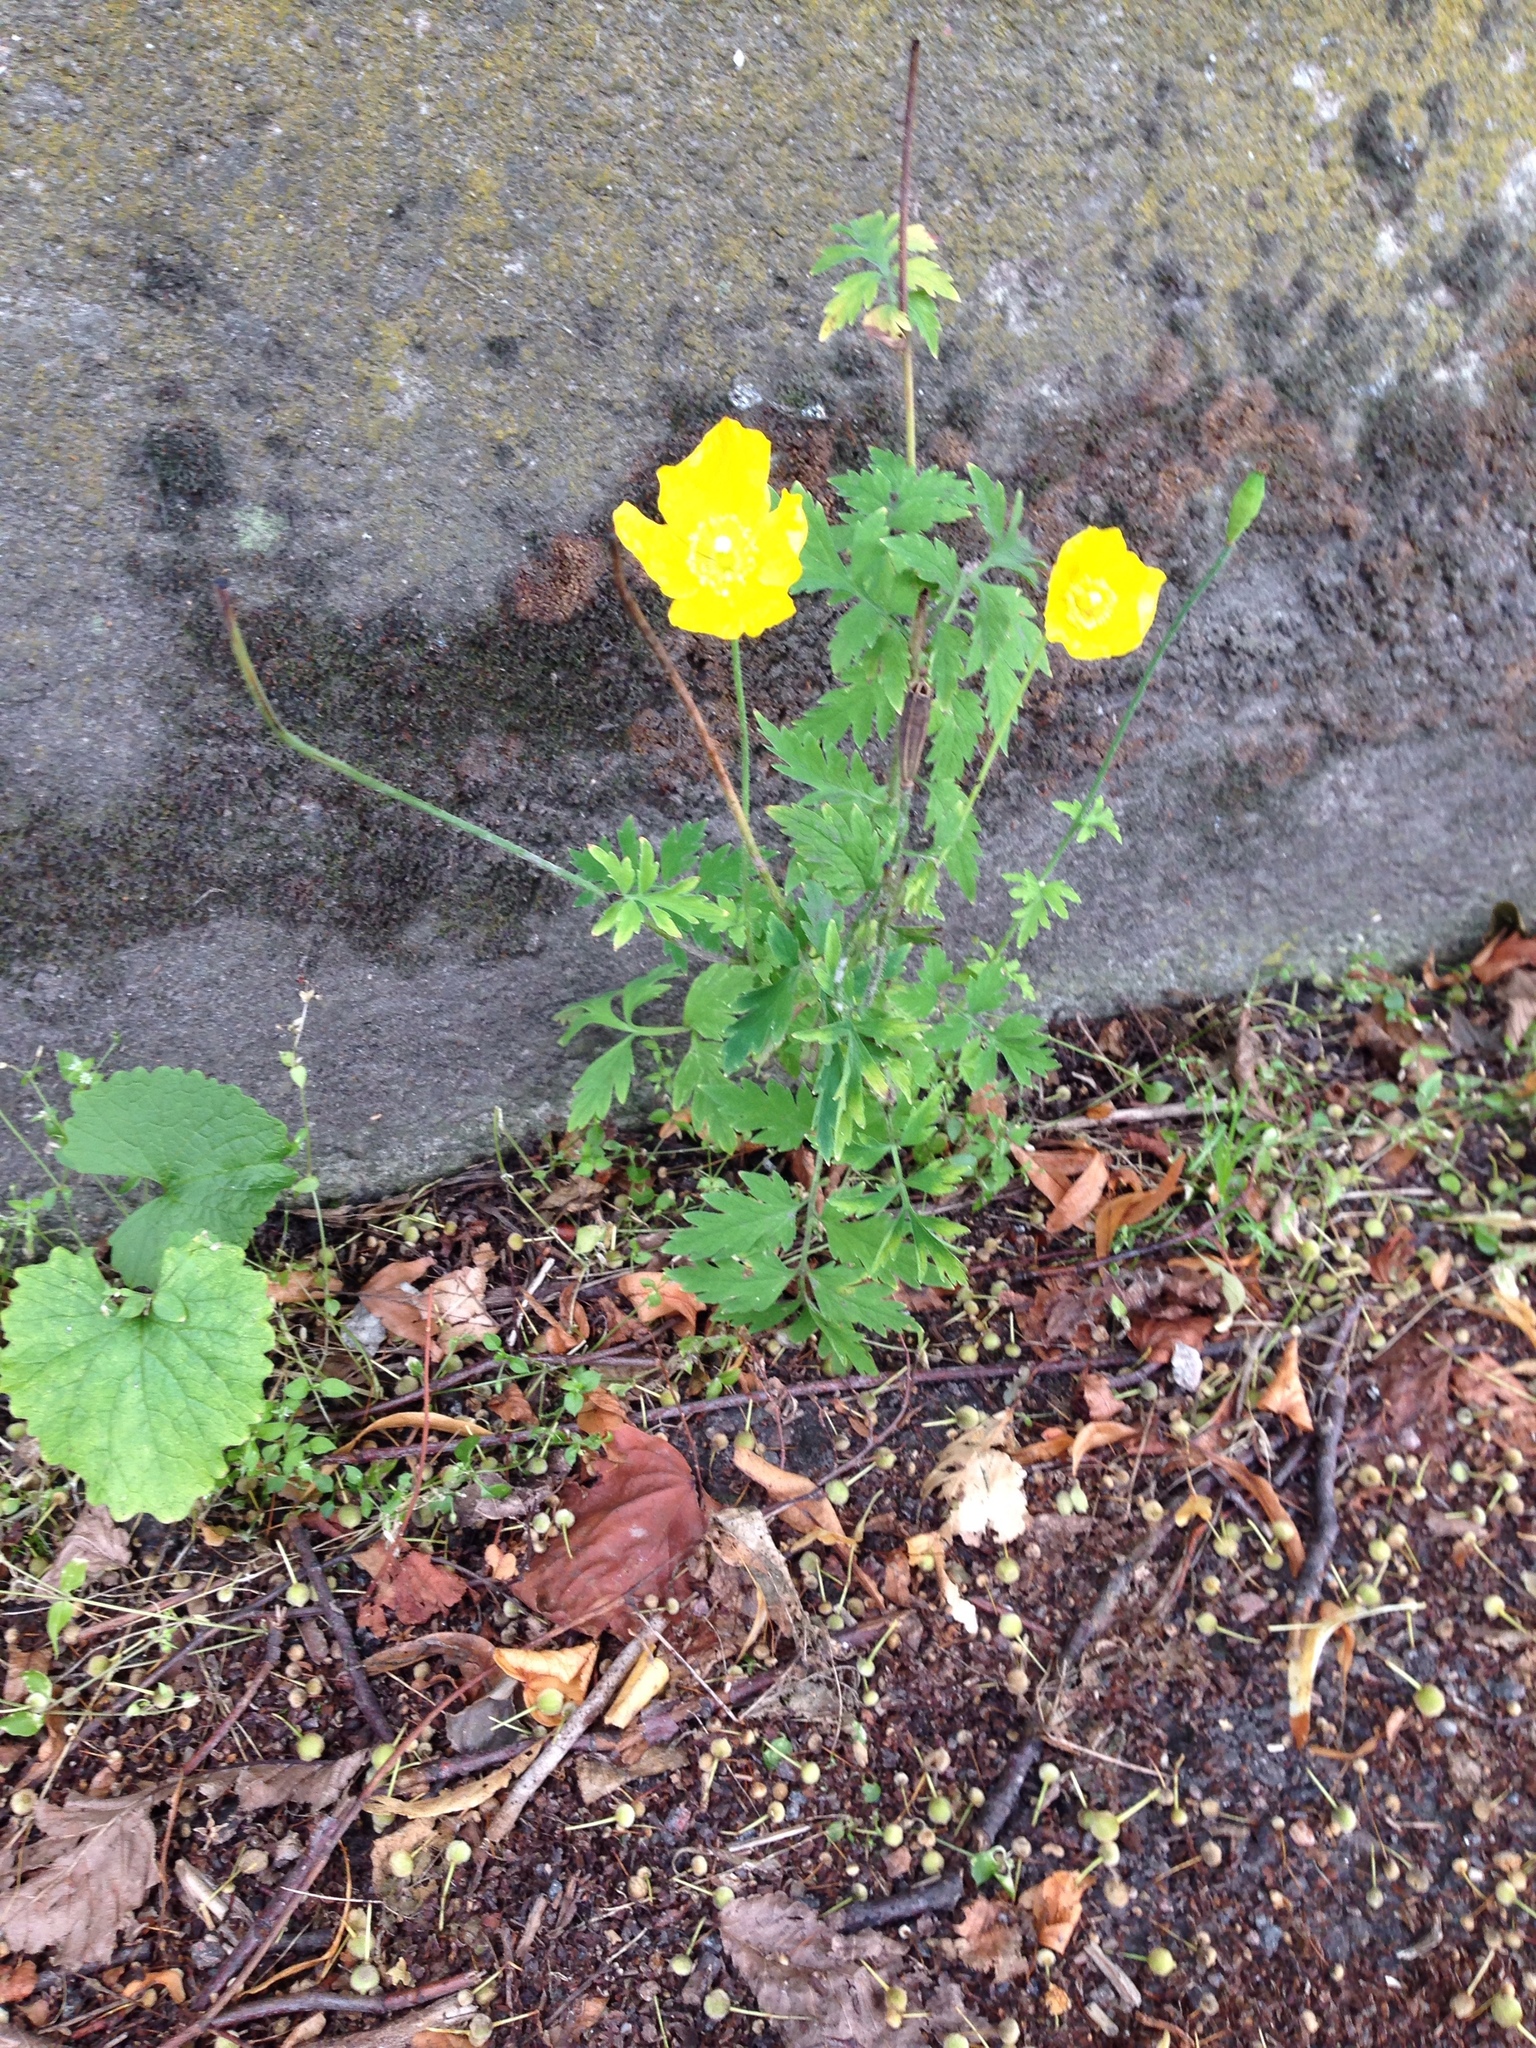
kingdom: Plantae
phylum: Tracheophyta
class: Magnoliopsida
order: Ranunculales
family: Papaveraceae
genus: Papaver
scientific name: Papaver cambricum
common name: Poppy
